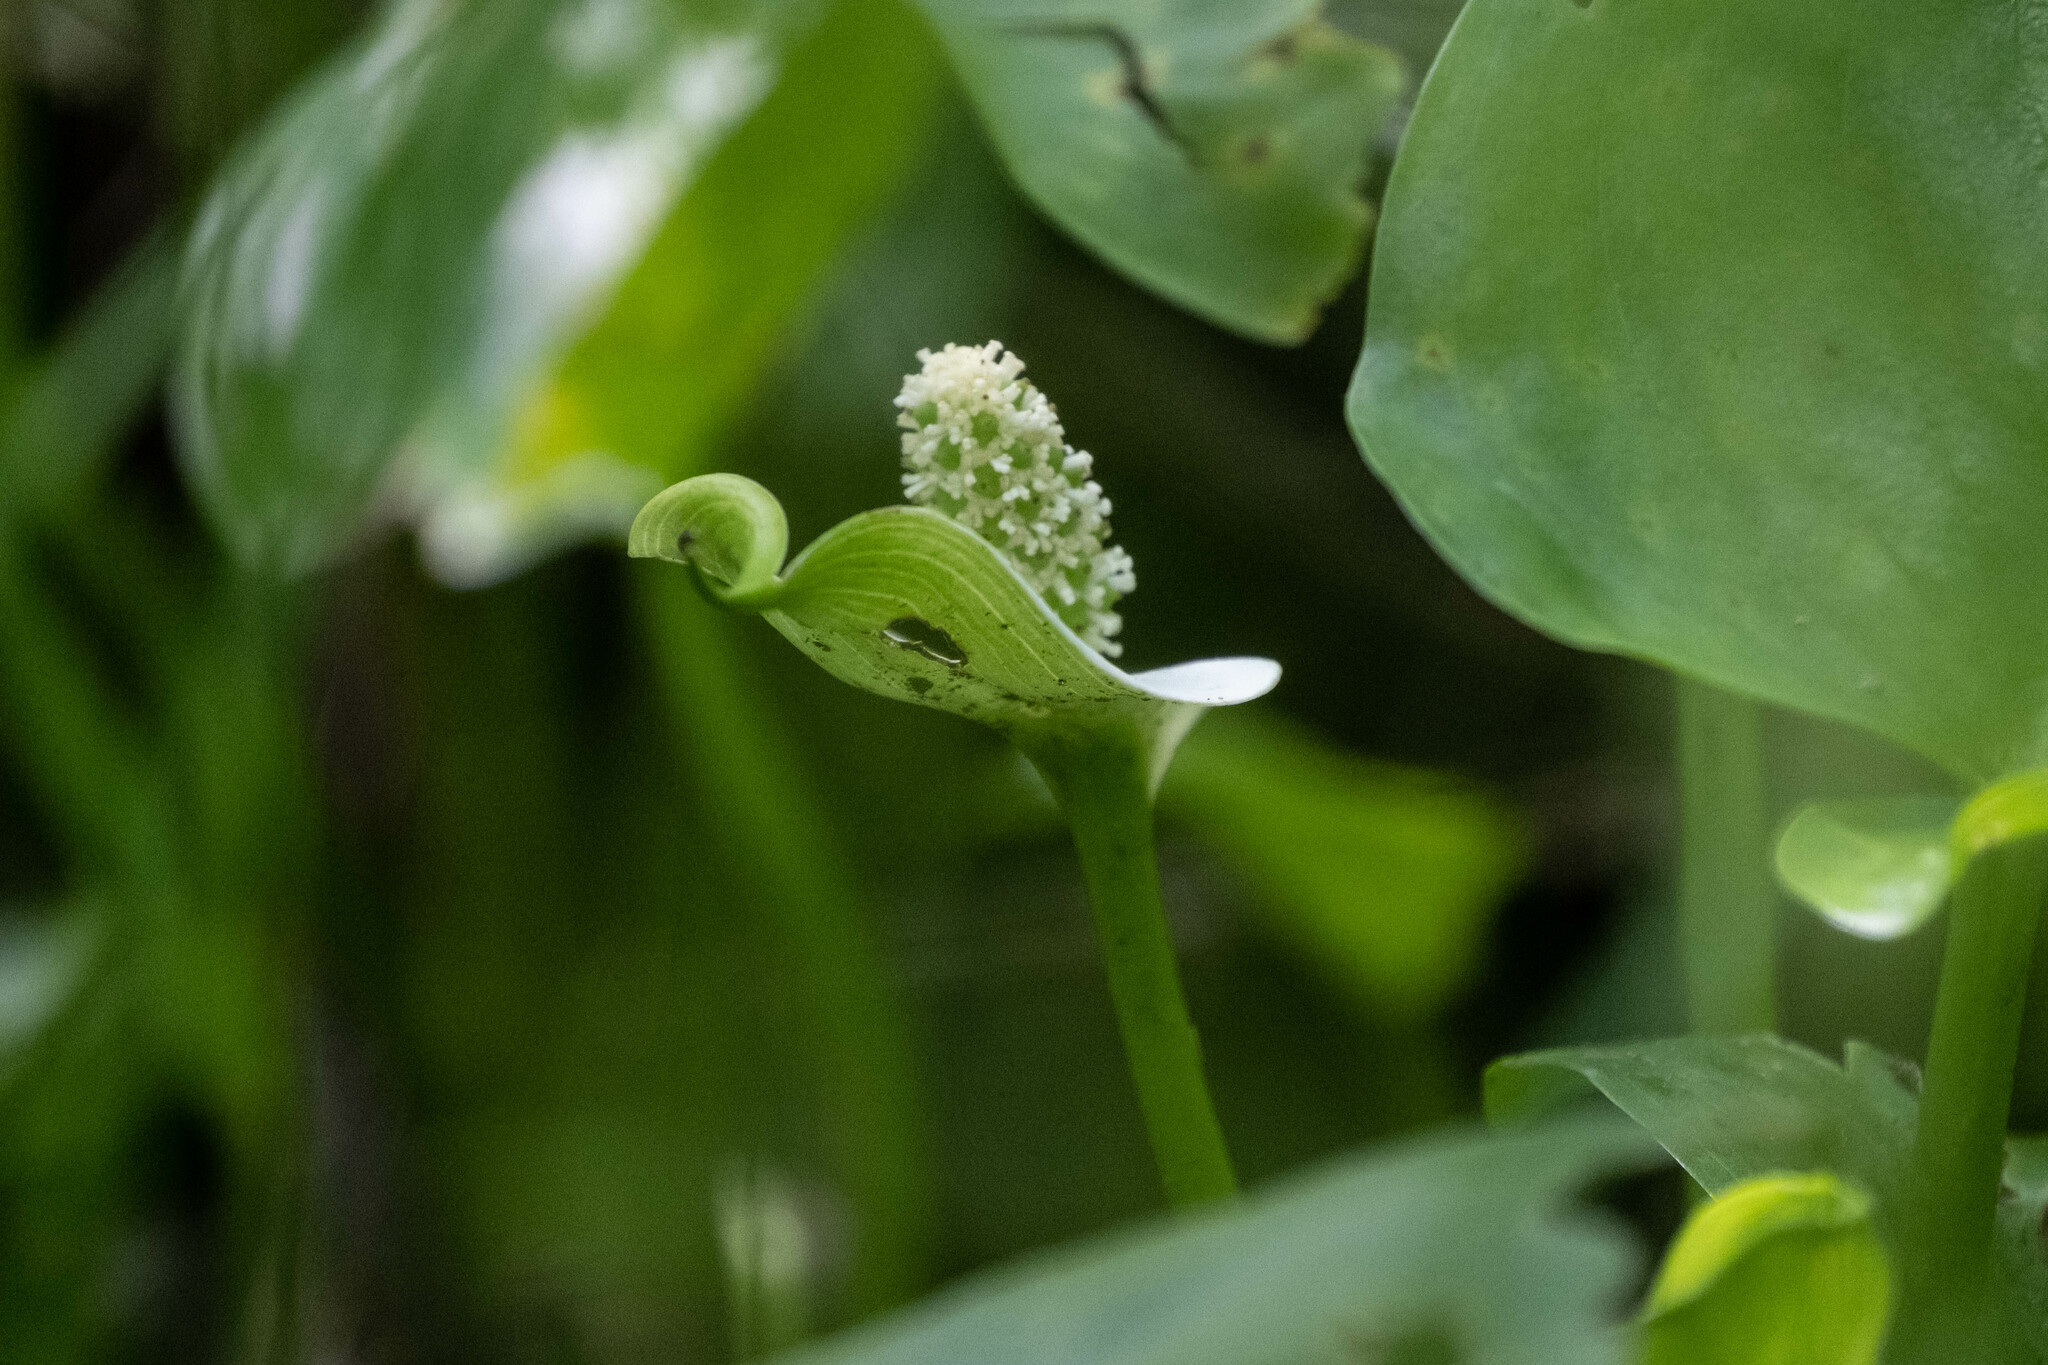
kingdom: Plantae
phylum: Tracheophyta
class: Liliopsida
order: Alismatales
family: Araceae
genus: Calla
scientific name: Calla palustris
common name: Bog arum
